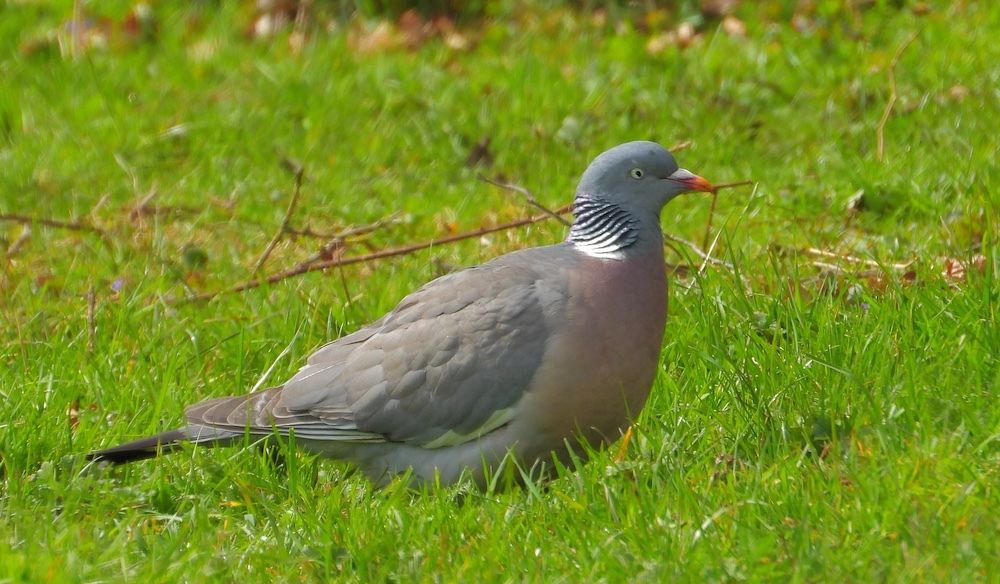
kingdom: Animalia
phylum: Chordata
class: Aves
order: Columbiformes
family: Columbidae
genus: Columba
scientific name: Columba palumbus
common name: Common wood pigeon
